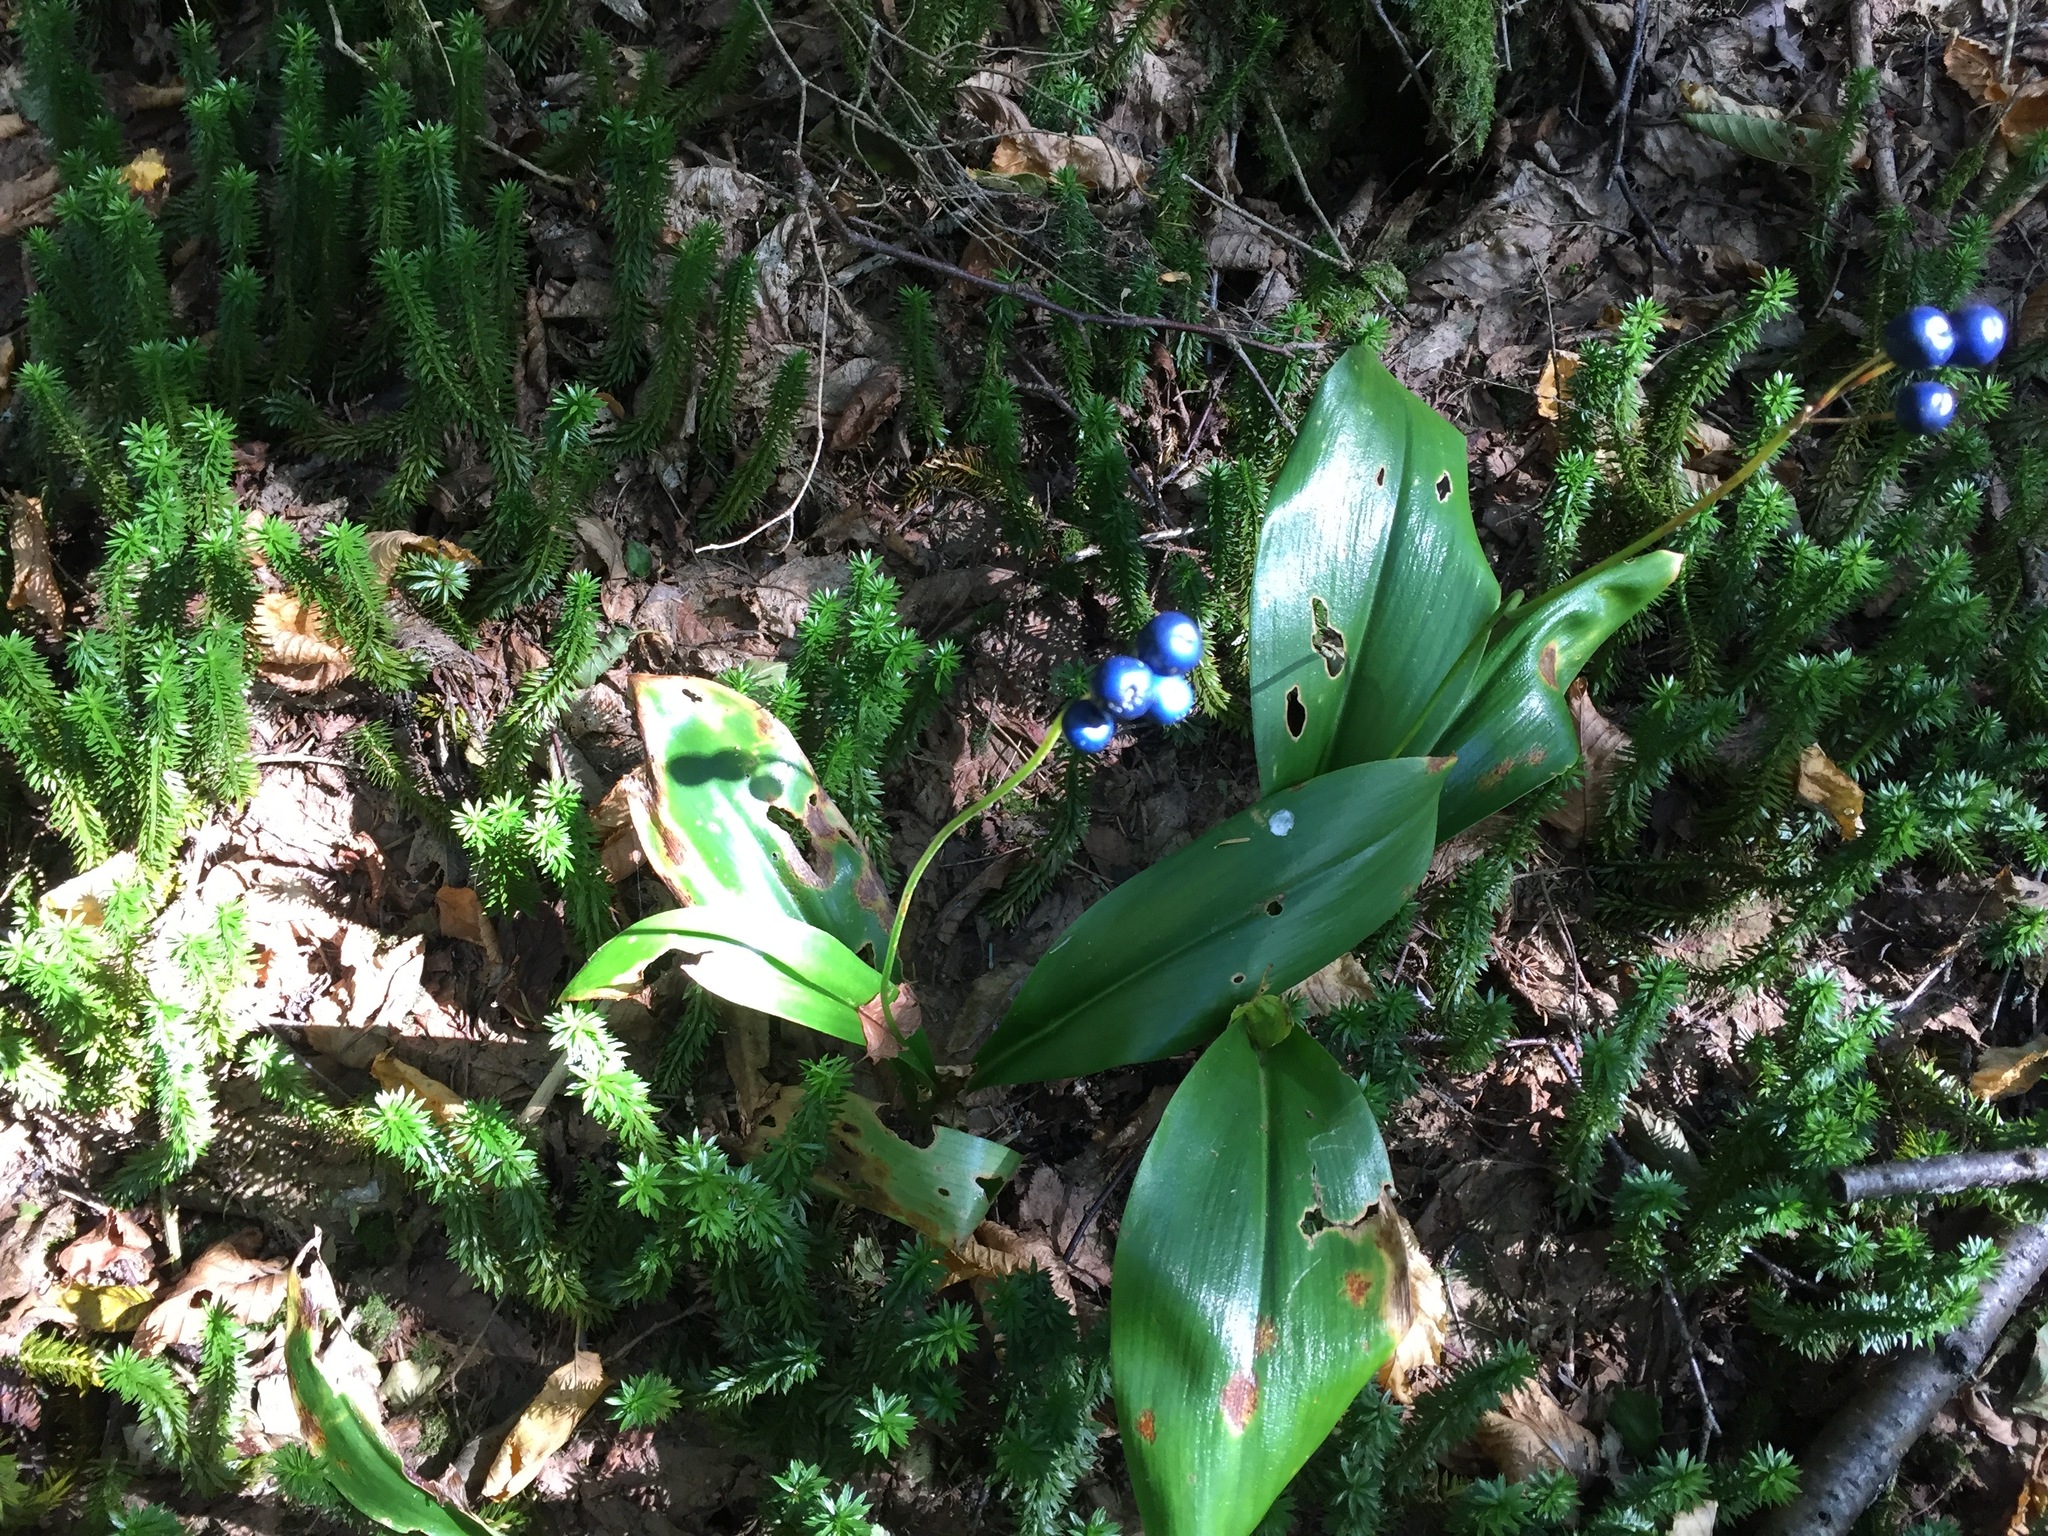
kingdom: Plantae
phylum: Tracheophyta
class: Liliopsida
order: Liliales
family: Liliaceae
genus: Clintonia
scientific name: Clintonia borealis
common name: Yellow clintonia
